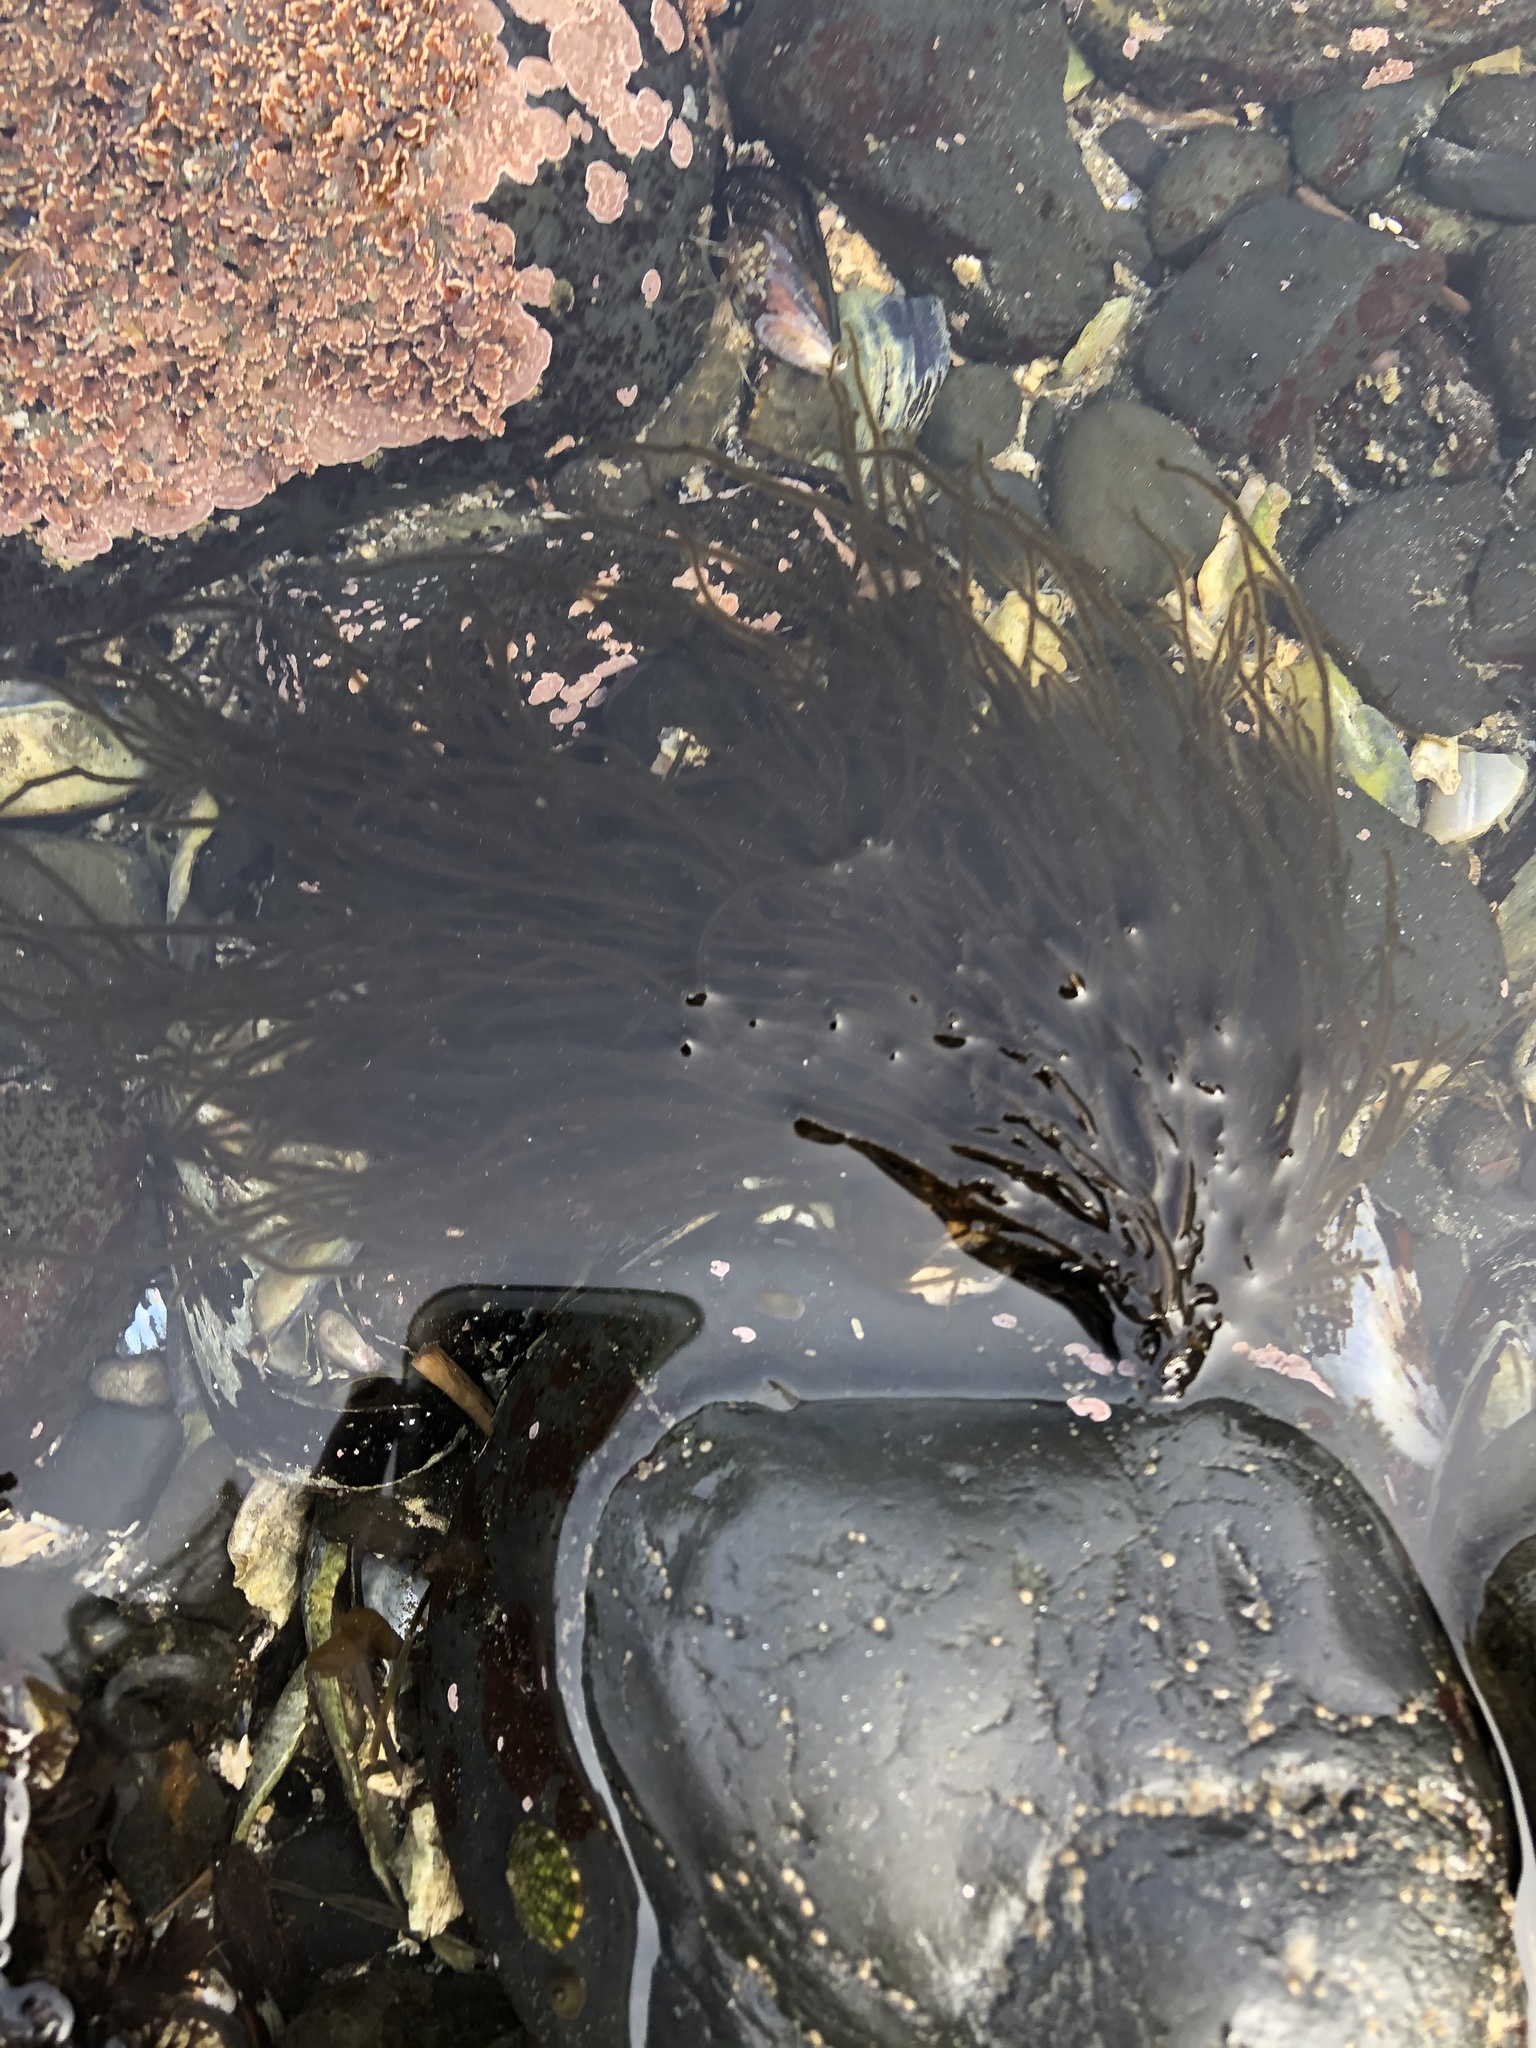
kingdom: Chromista
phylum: Ochrophyta
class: Phaeophyceae
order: Ectocarpales
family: Chordariaceae
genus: Haplogloia
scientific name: Haplogloia andersonii
